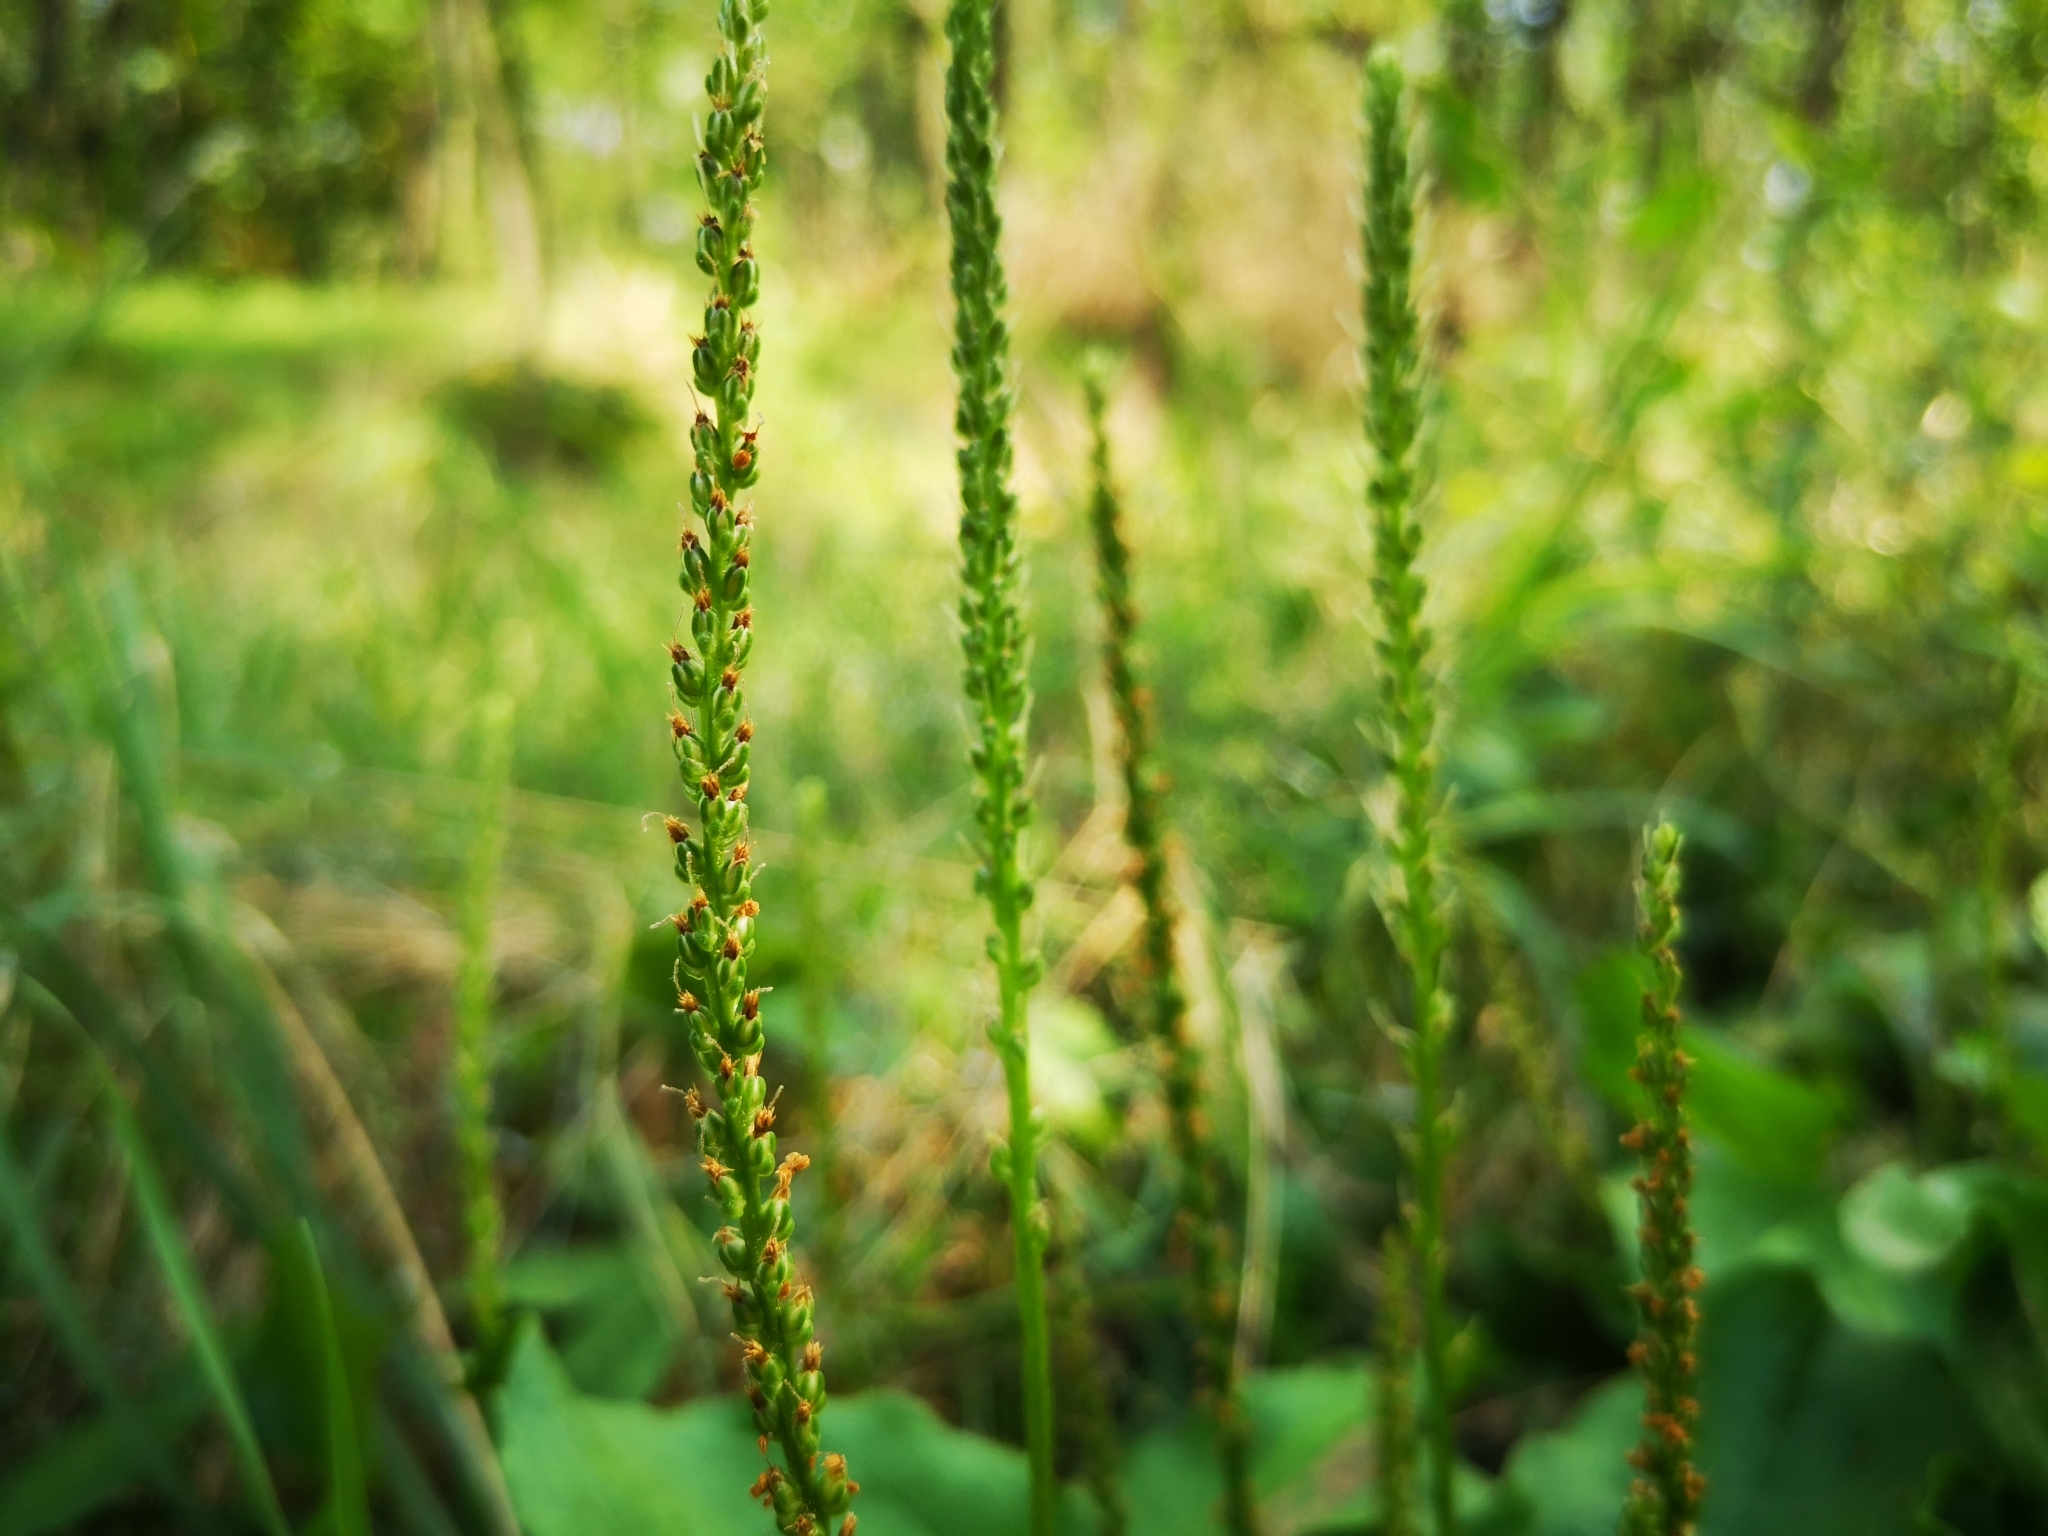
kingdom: Plantae
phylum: Tracheophyta
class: Magnoliopsida
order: Lamiales
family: Plantaginaceae
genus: Plantago
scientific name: Plantago major
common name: Common plantain
